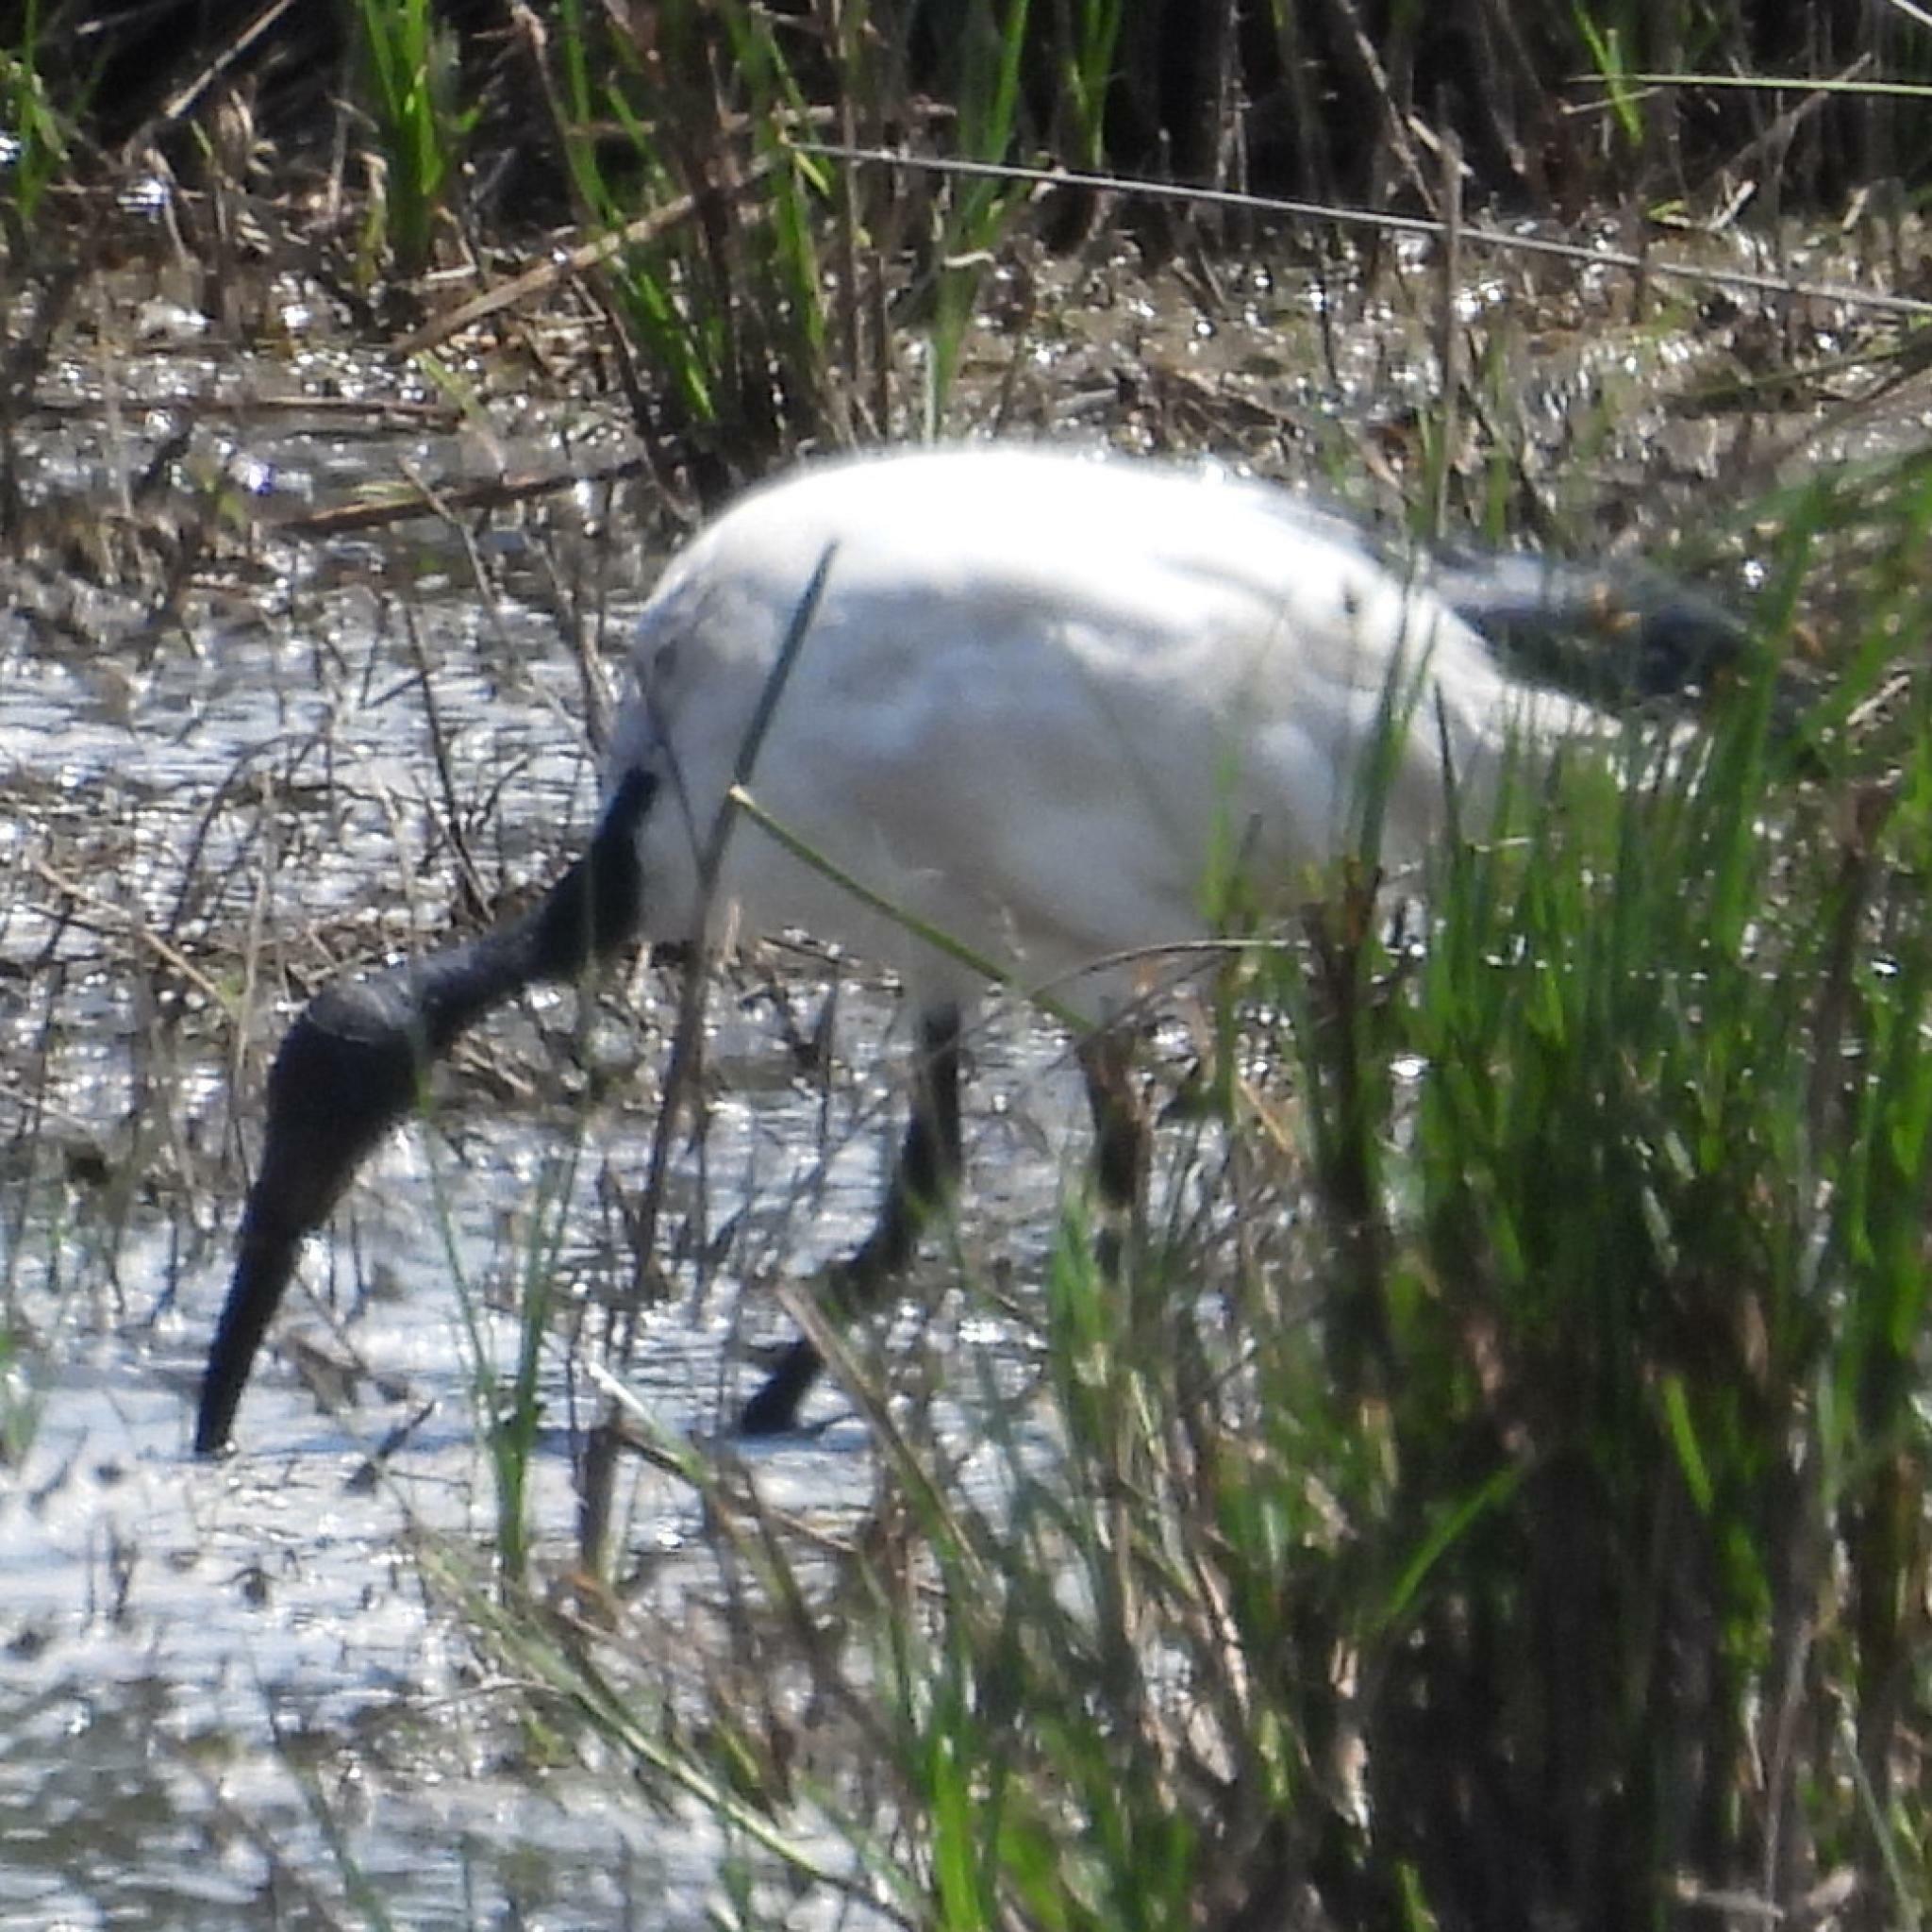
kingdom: Animalia
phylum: Chordata
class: Aves
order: Pelecaniformes
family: Threskiornithidae
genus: Threskiornis
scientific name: Threskiornis aethiopicus
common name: Sacred ibis
